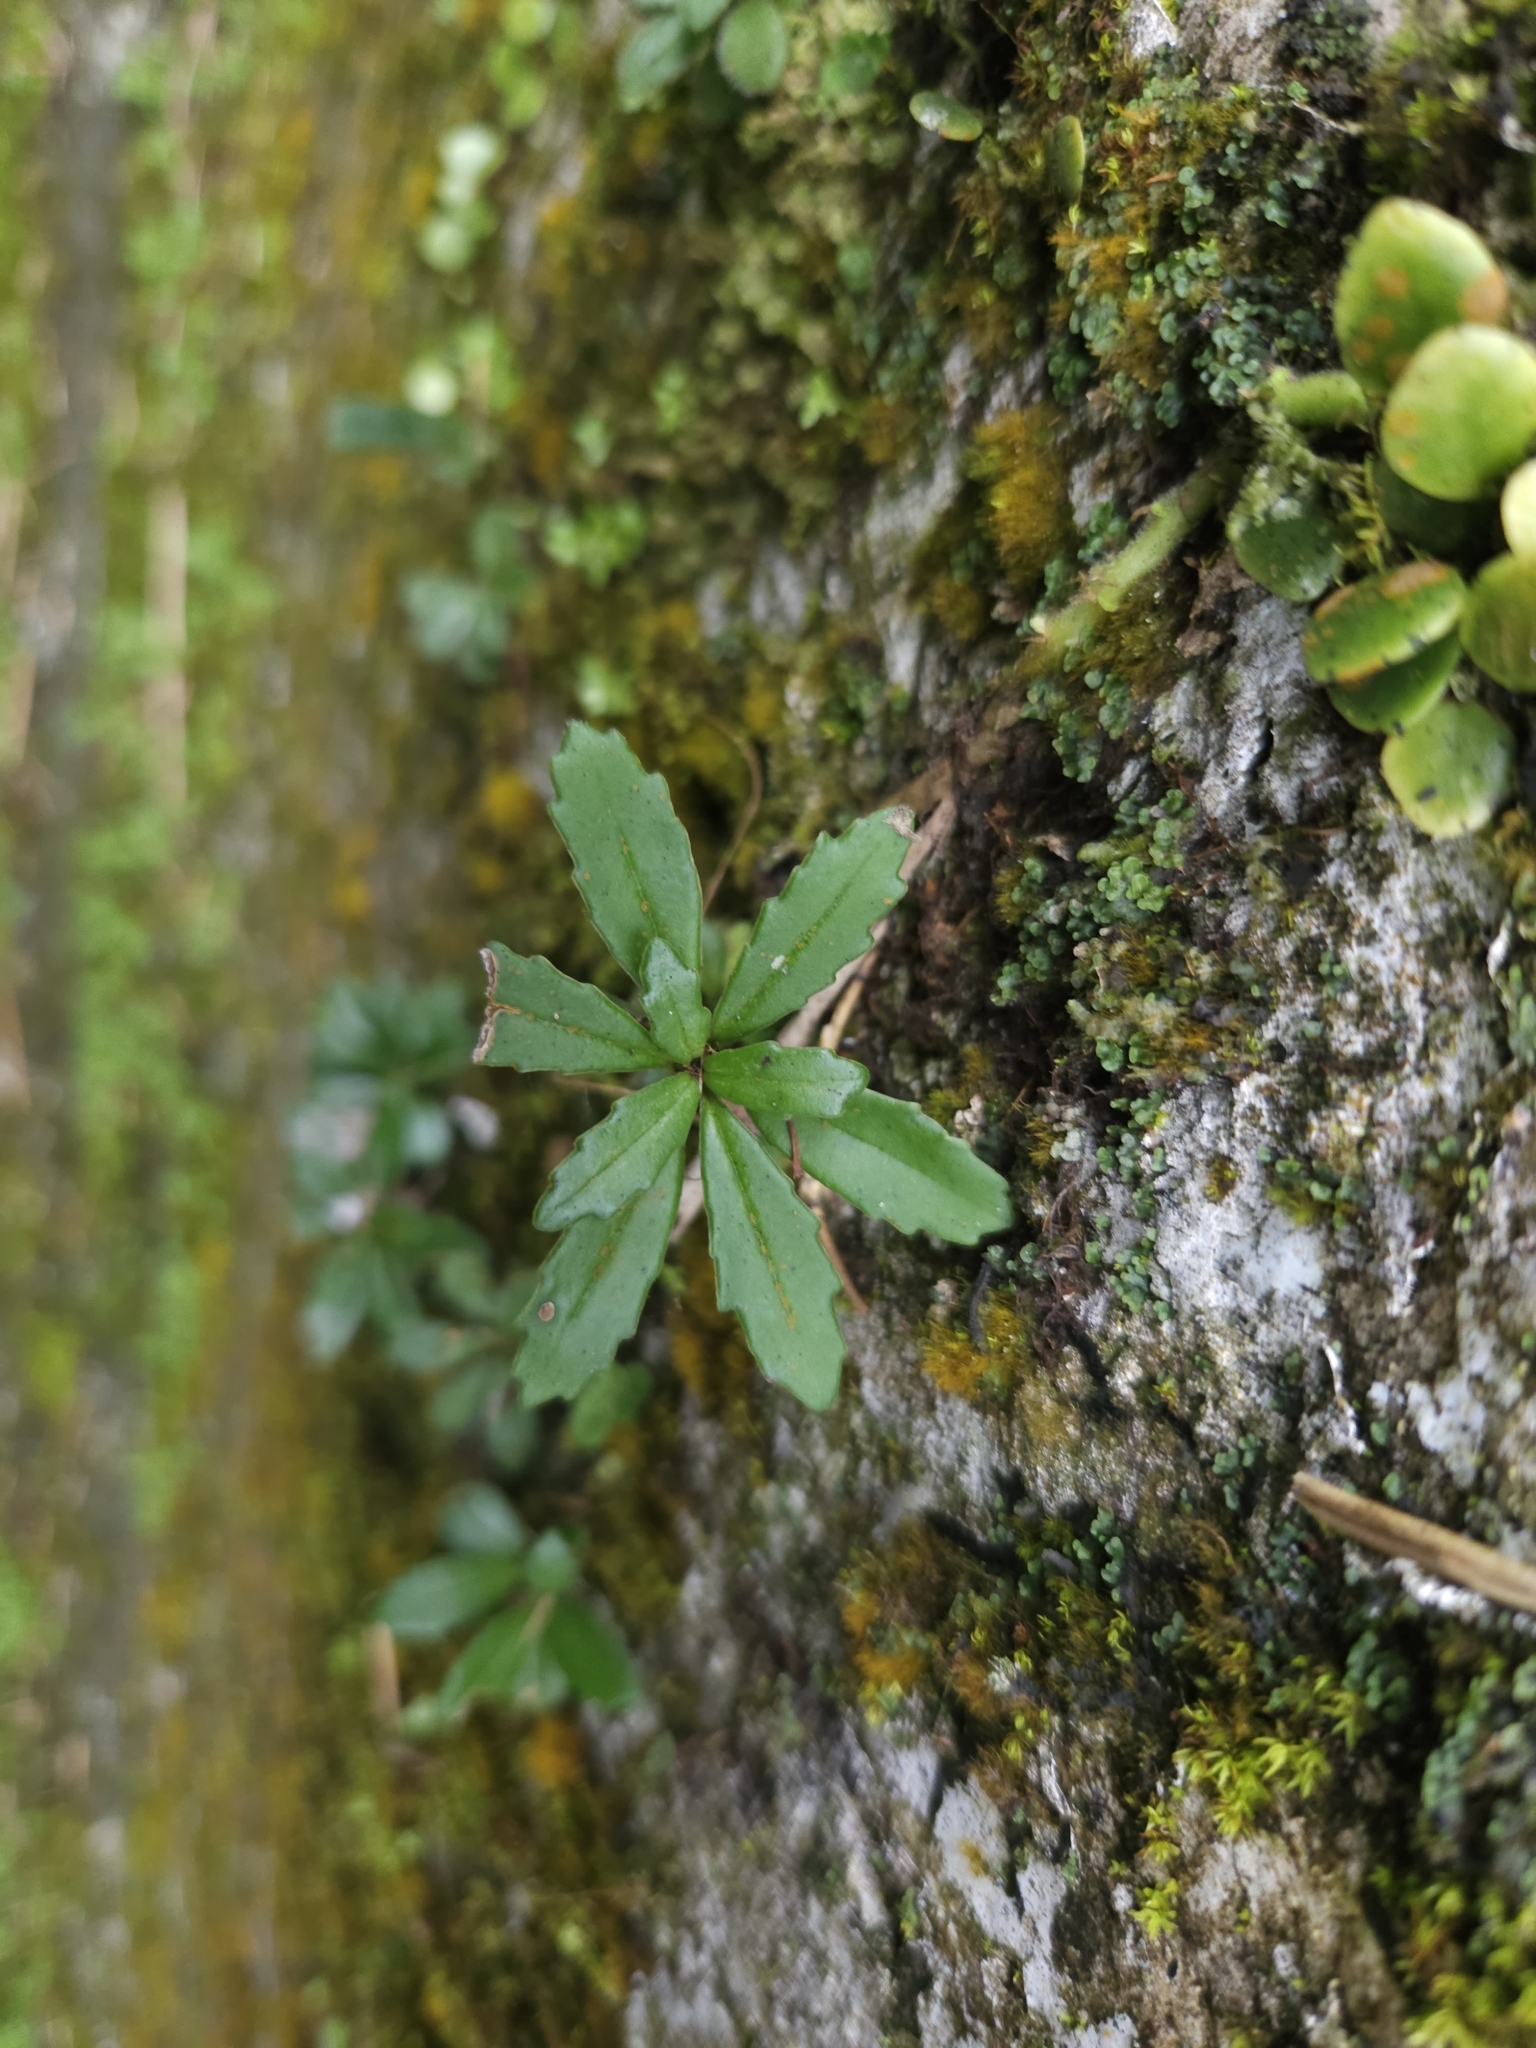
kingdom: Plantae
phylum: Tracheophyta
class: Magnoliopsida
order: Lamiales
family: Gesneriaceae
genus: Lysionotus
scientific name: Lysionotus pauciflorus
